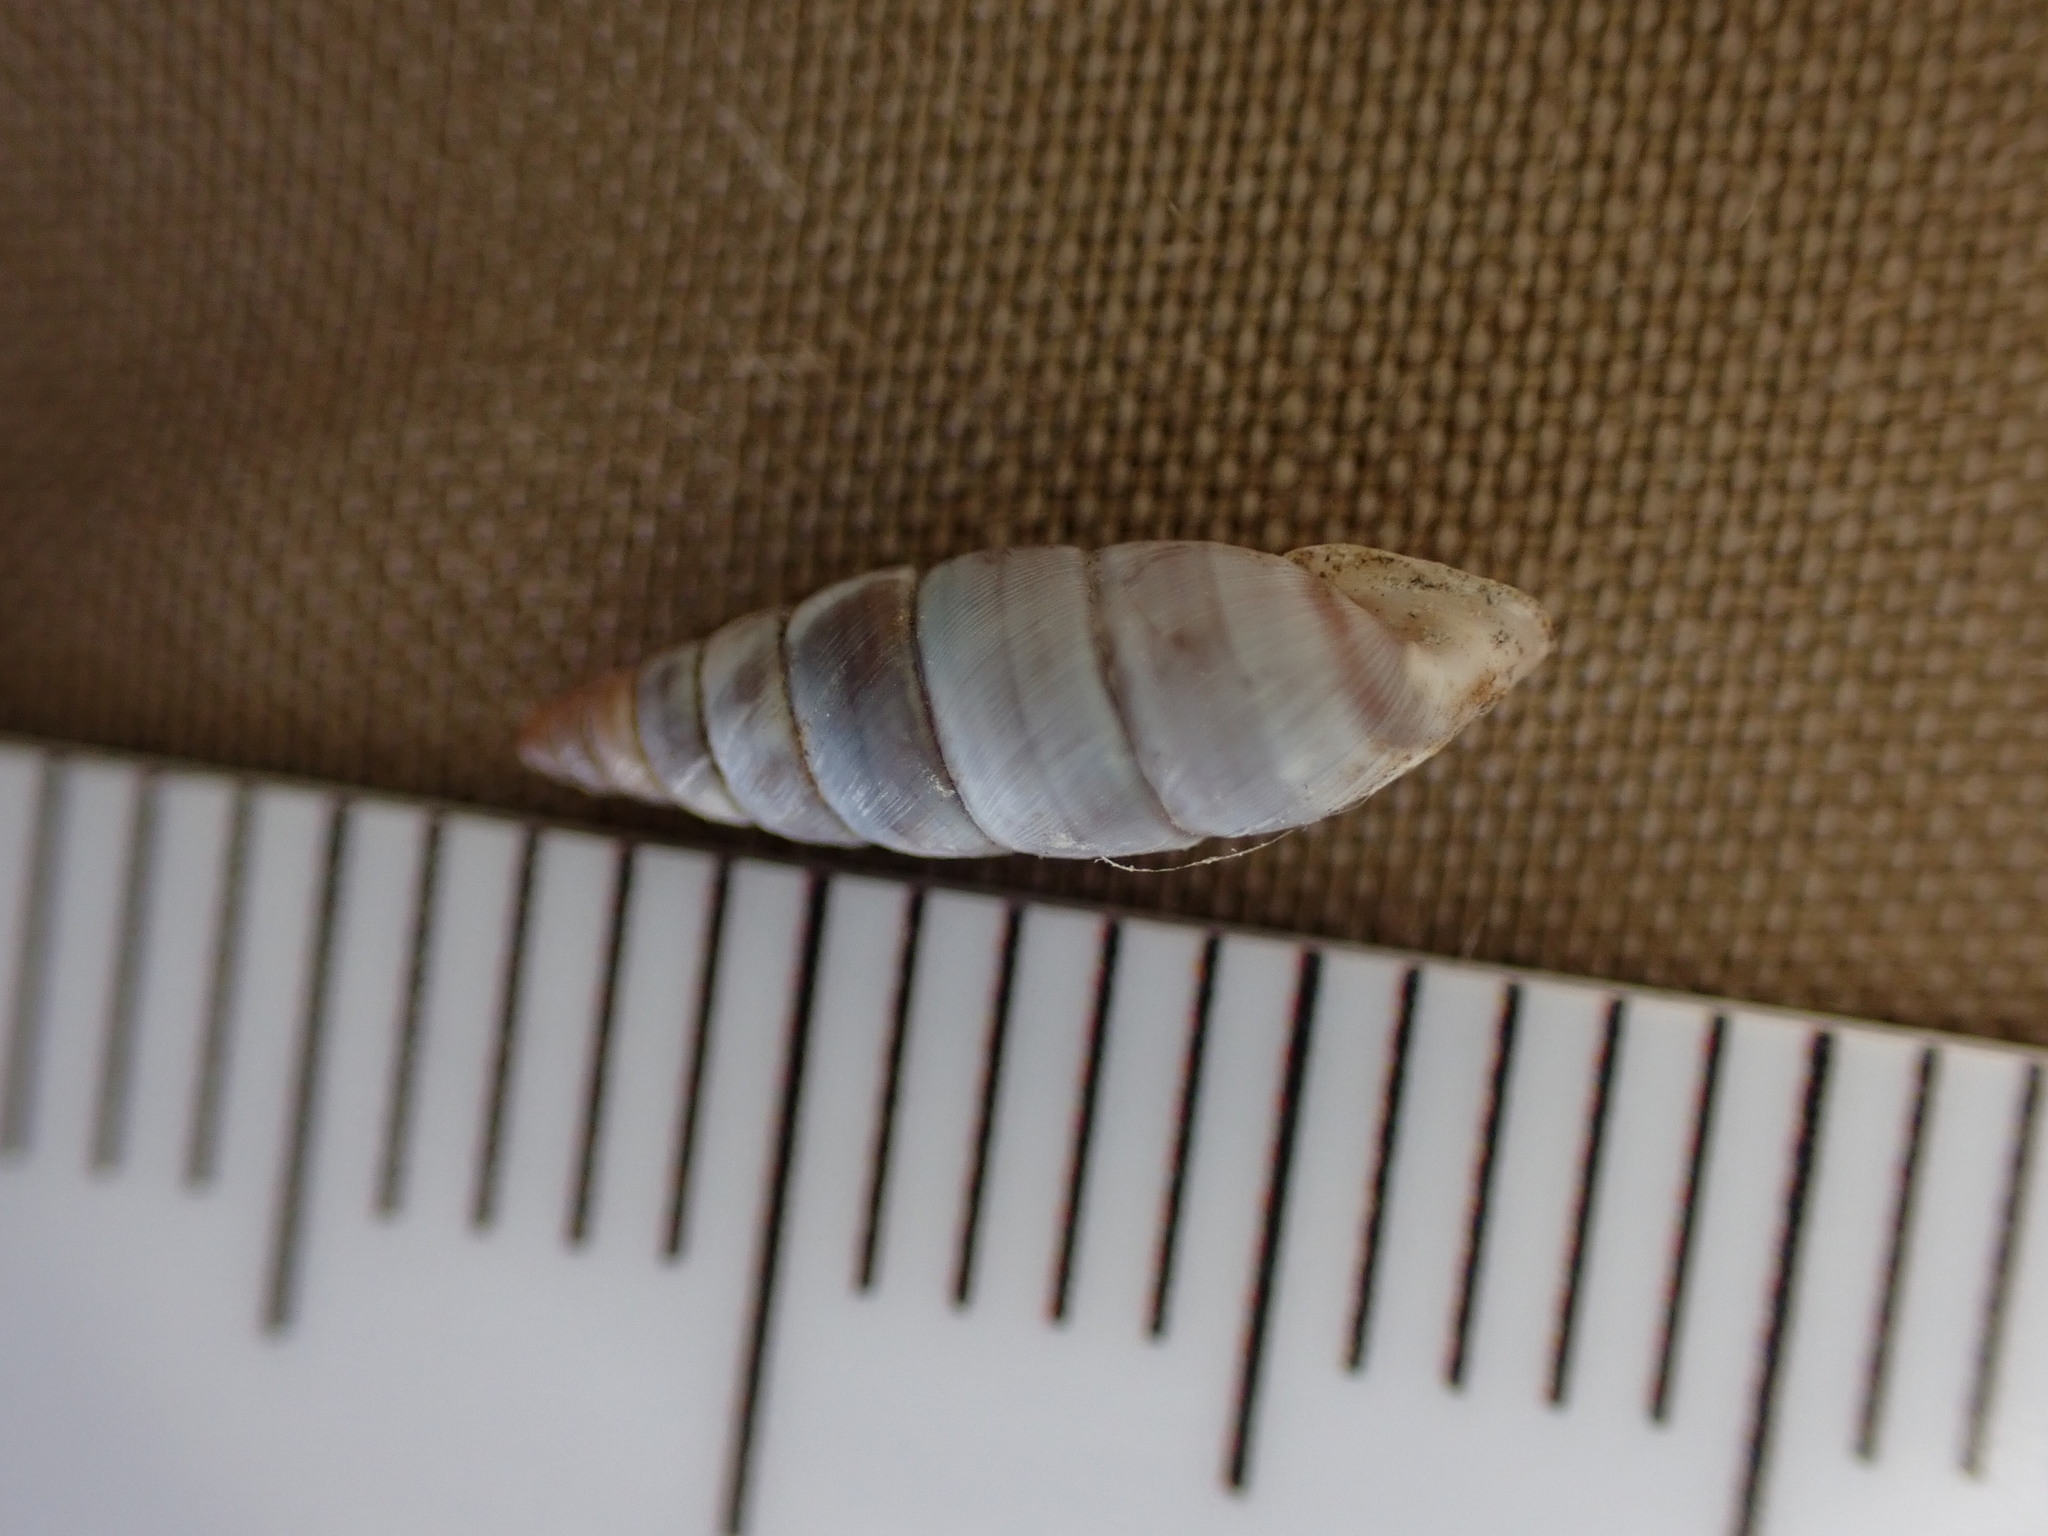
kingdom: Animalia
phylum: Mollusca
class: Gastropoda
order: Stylommatophora
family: Chondrinidae
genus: Solatopupa
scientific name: Solatopupa similis
